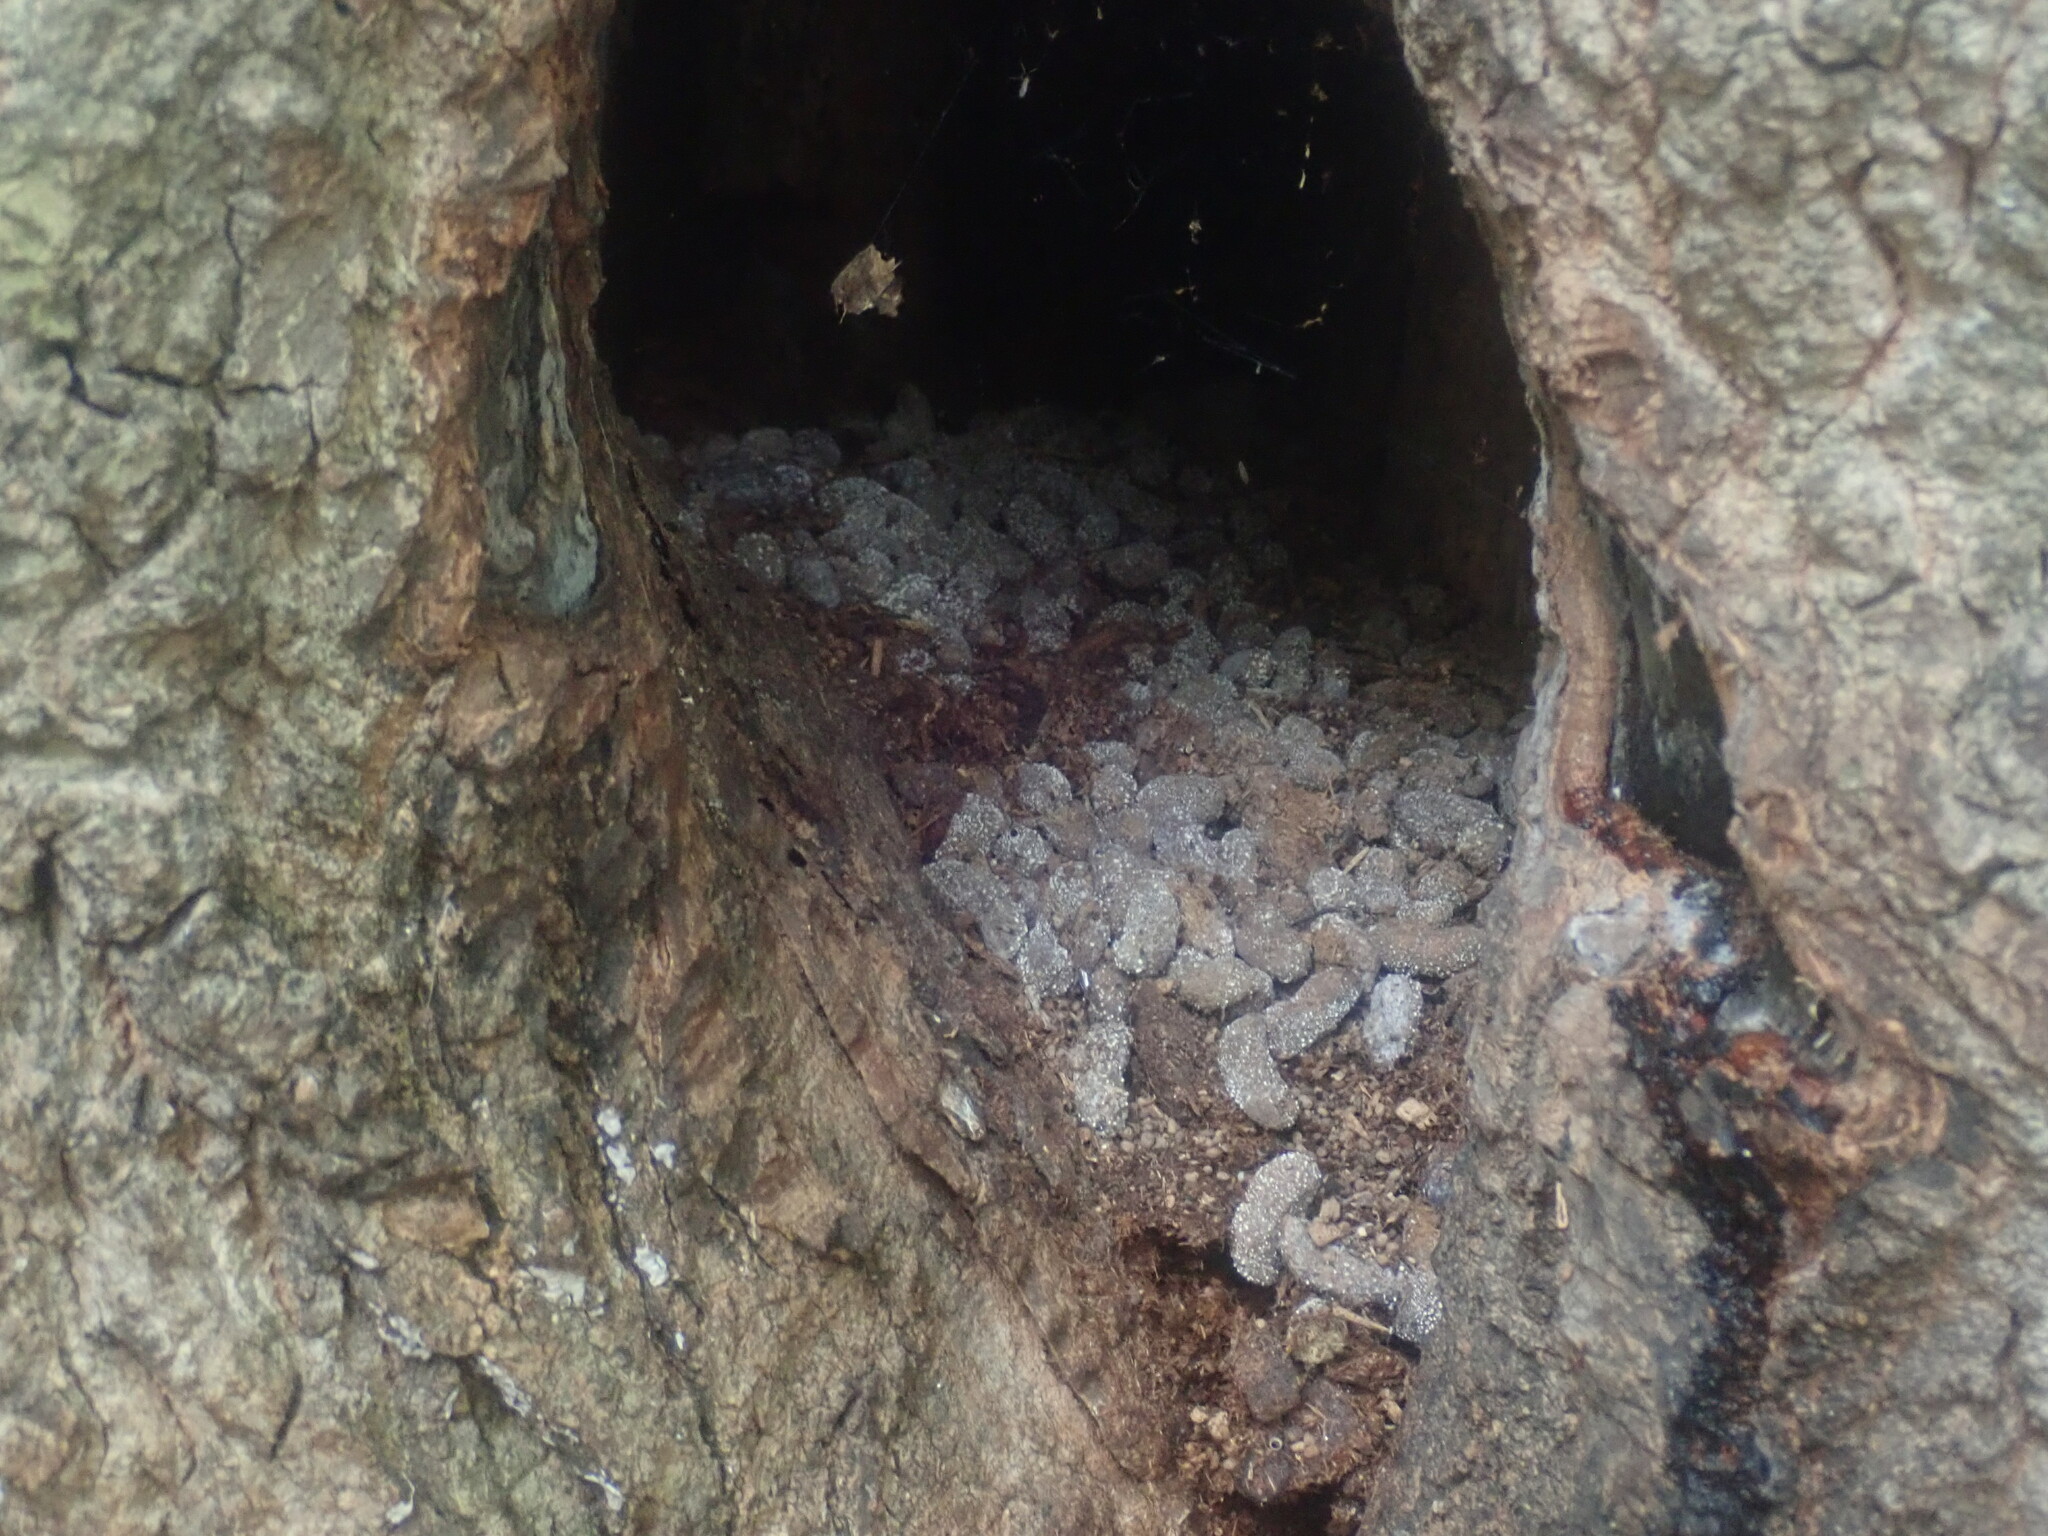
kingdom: Animalia
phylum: Chordata
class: Mammalia
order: Rodentia
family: Erethizontidae
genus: Erethizon
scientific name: Erethizon dorsatus
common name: North american porcupine
